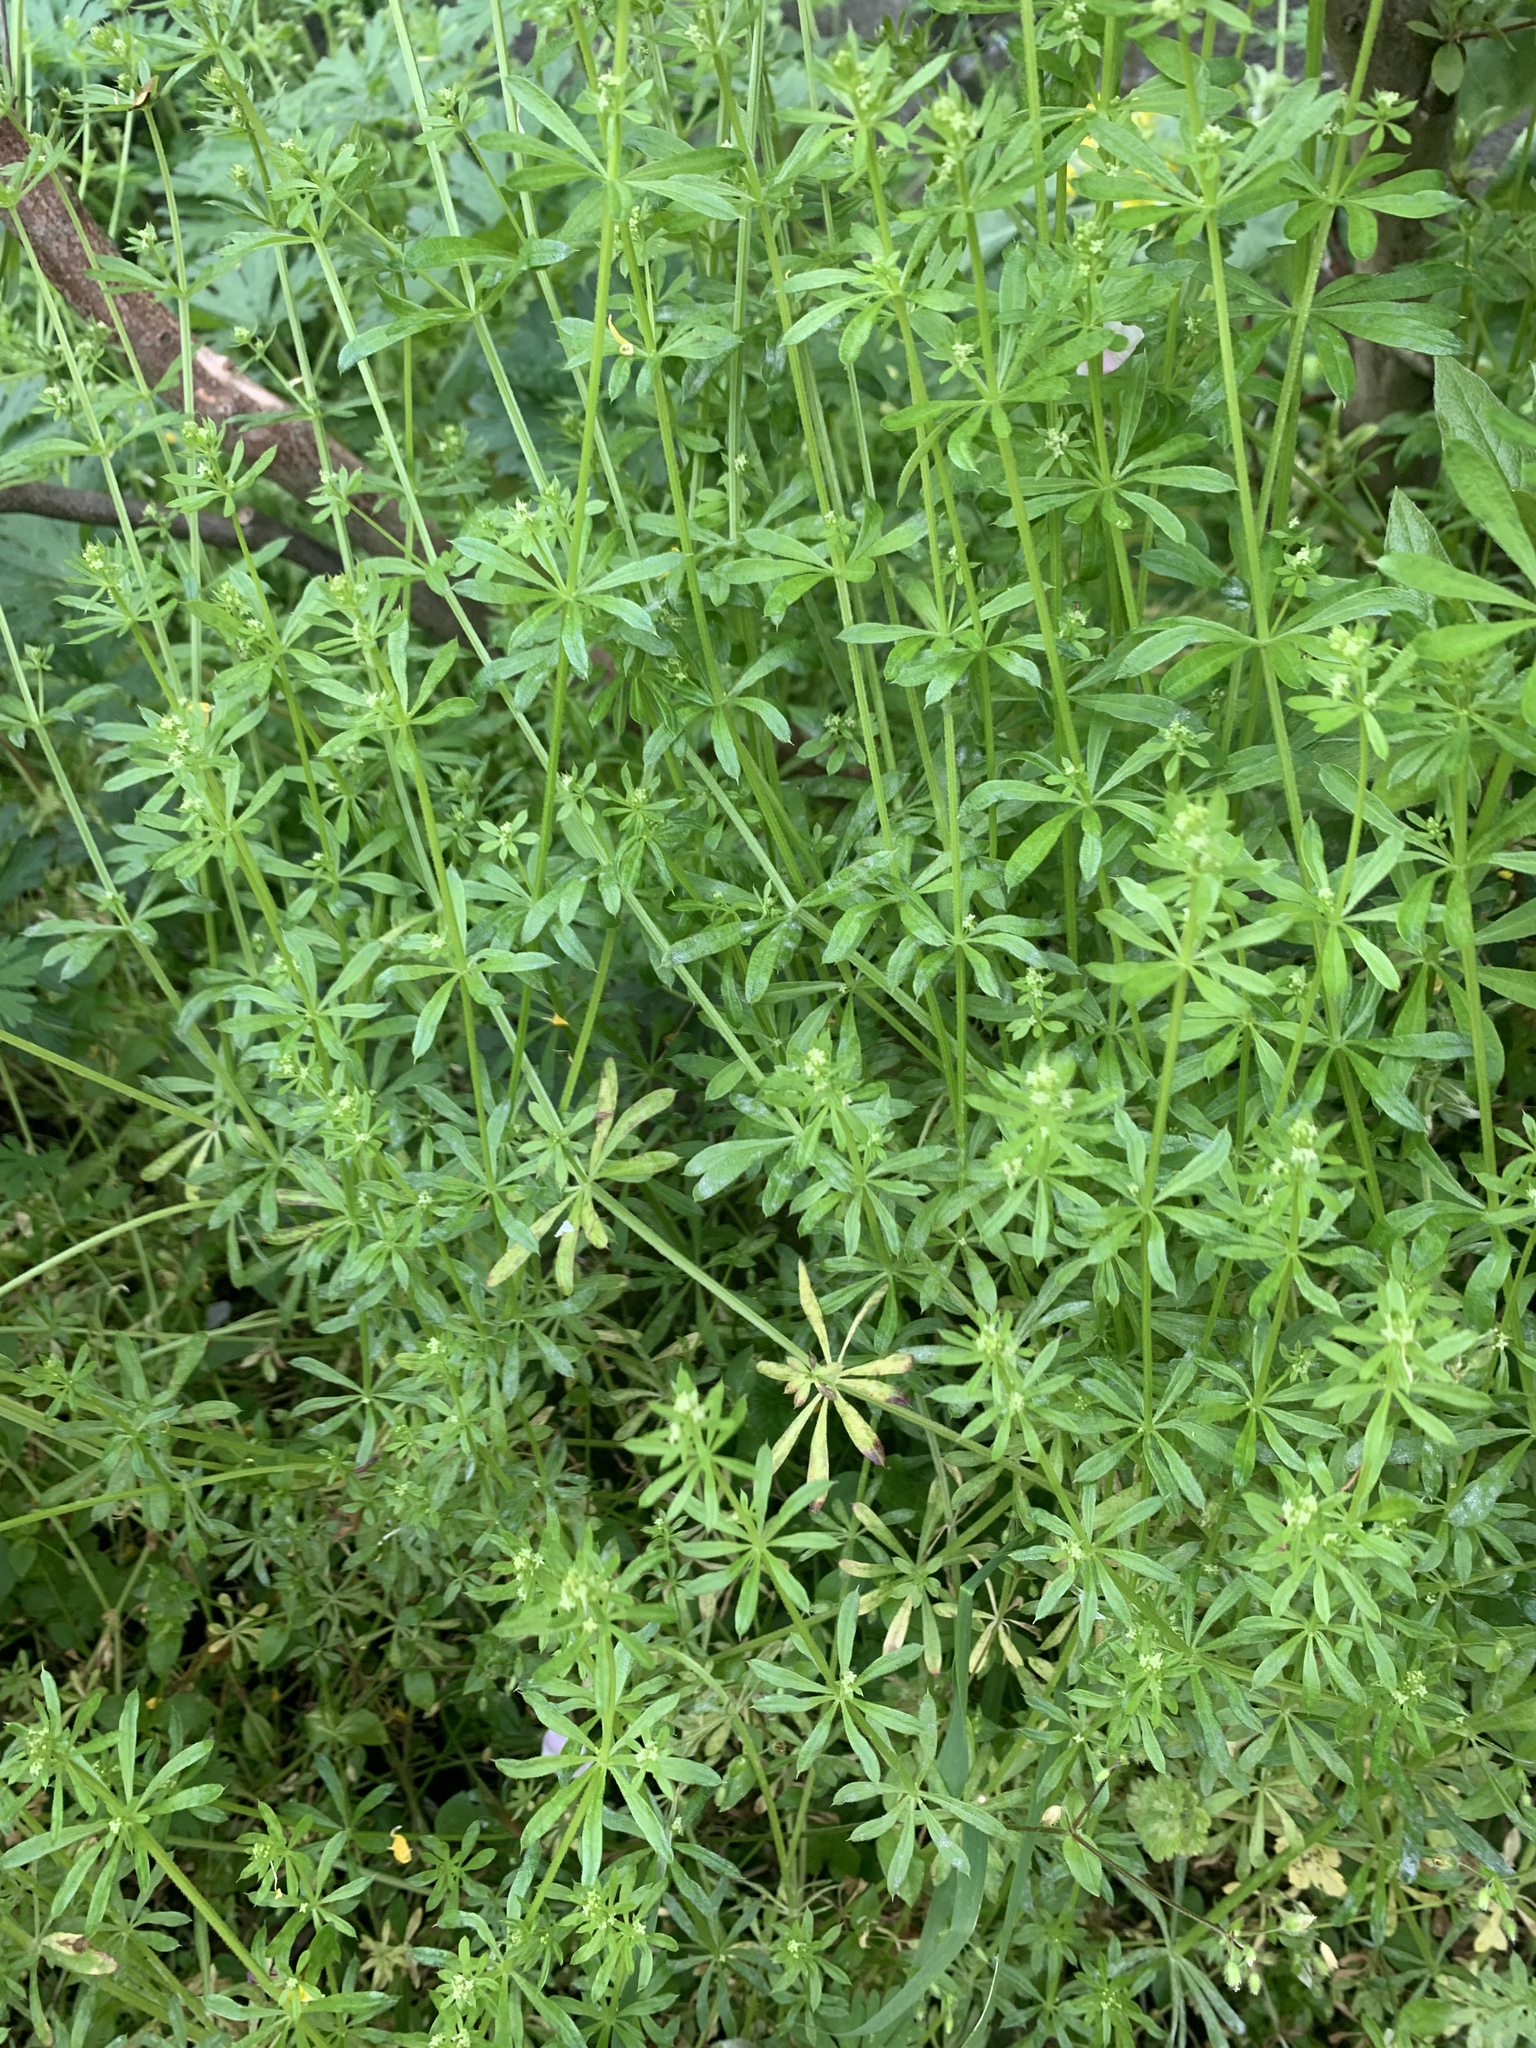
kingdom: Plantae
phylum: Tracheophyta
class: Magnoliopsida
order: Gentianales
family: Rubiaceae
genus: Galium
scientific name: Galium
